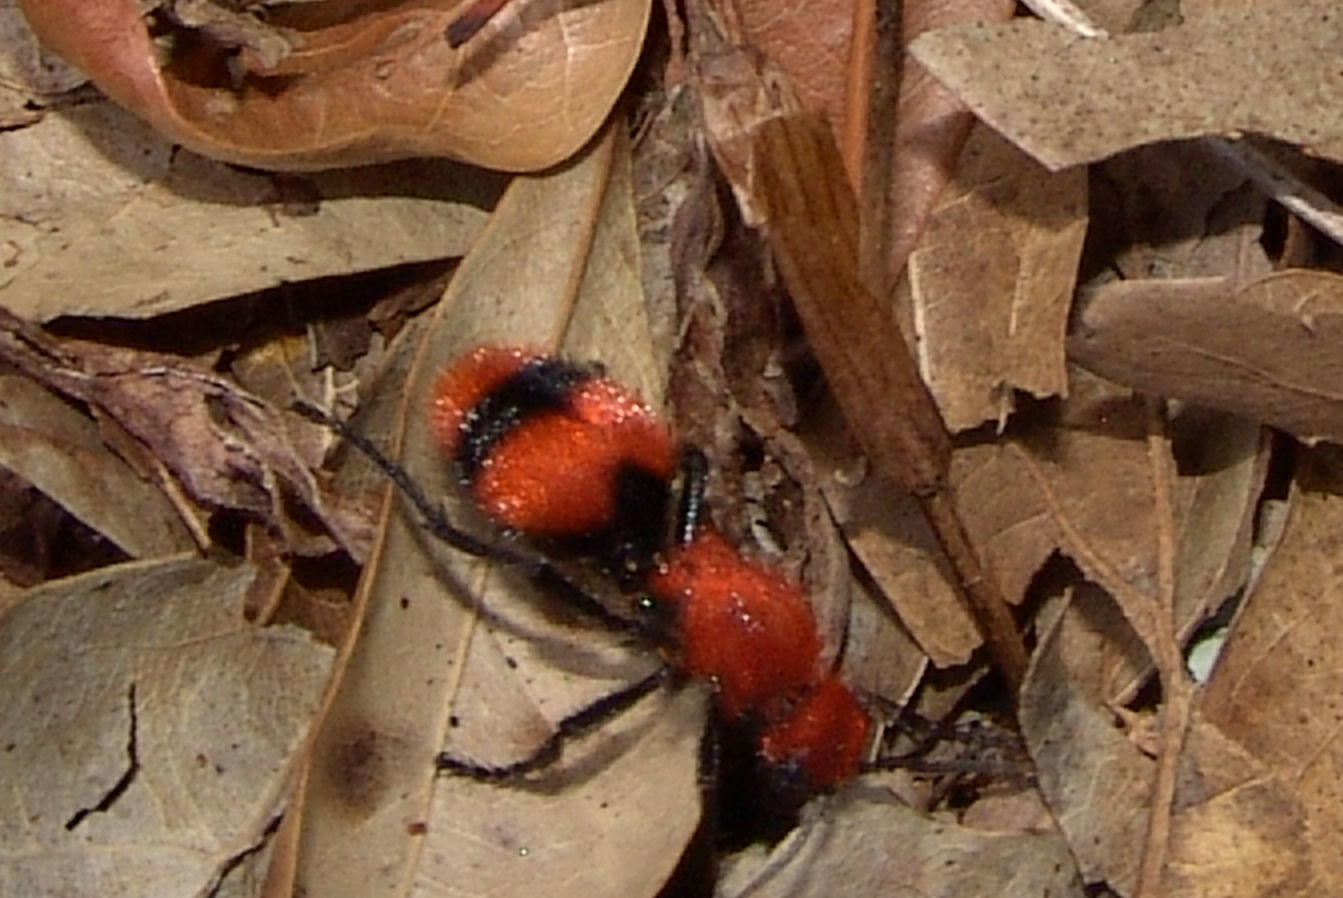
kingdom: Animalia
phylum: Arthropoda
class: Insecta
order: Hymenoptera
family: Mutillidae
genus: Dasymutilla
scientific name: Dasymutilla occidentalis
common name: Common eastern velvet ant
